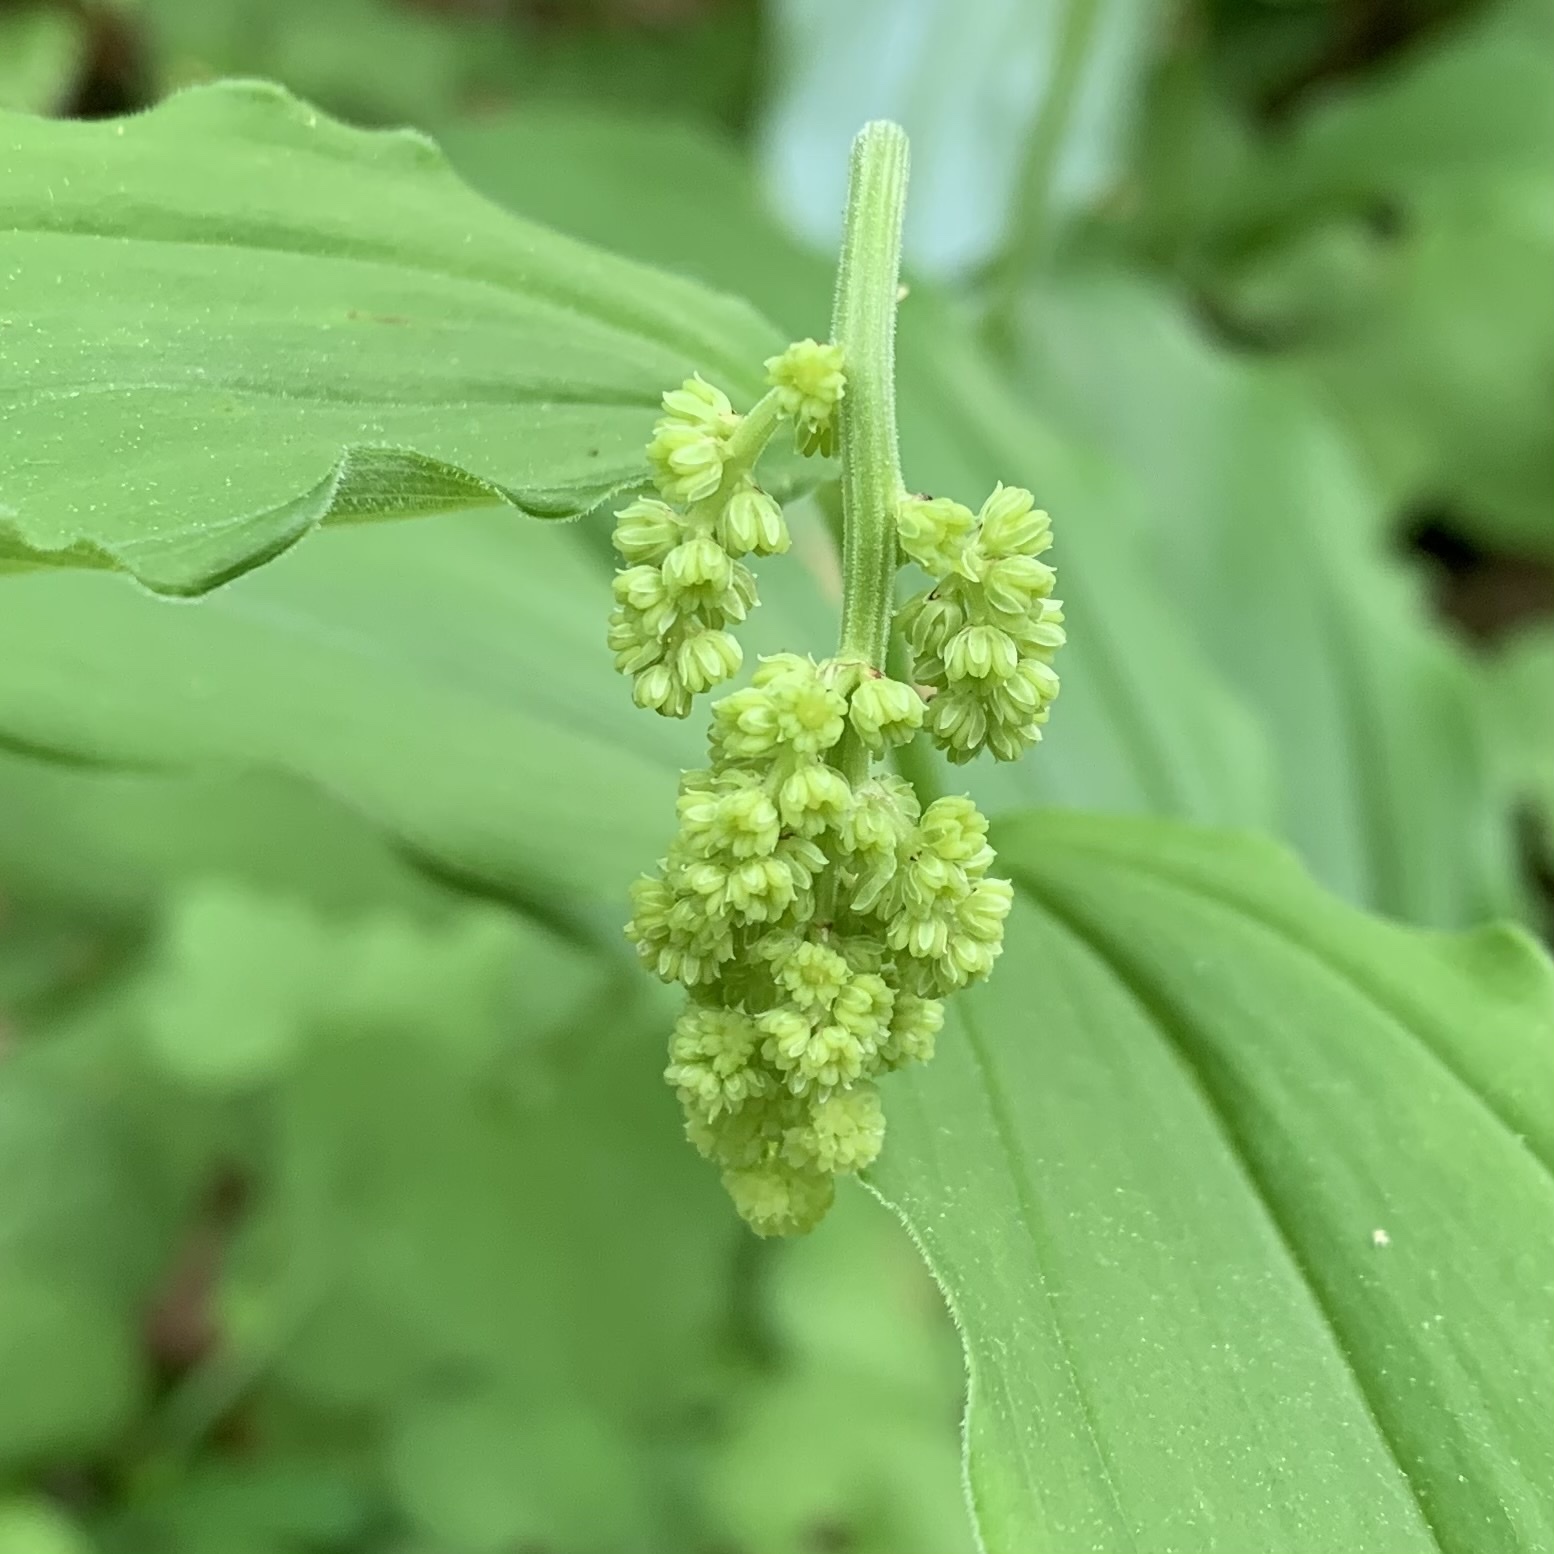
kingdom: Plantae
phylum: Tracheophyta
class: Liliopsida
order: Asparagales
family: Asparagaceae
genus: Maianthemum
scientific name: Maianthemum racemosum
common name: False spikenard
